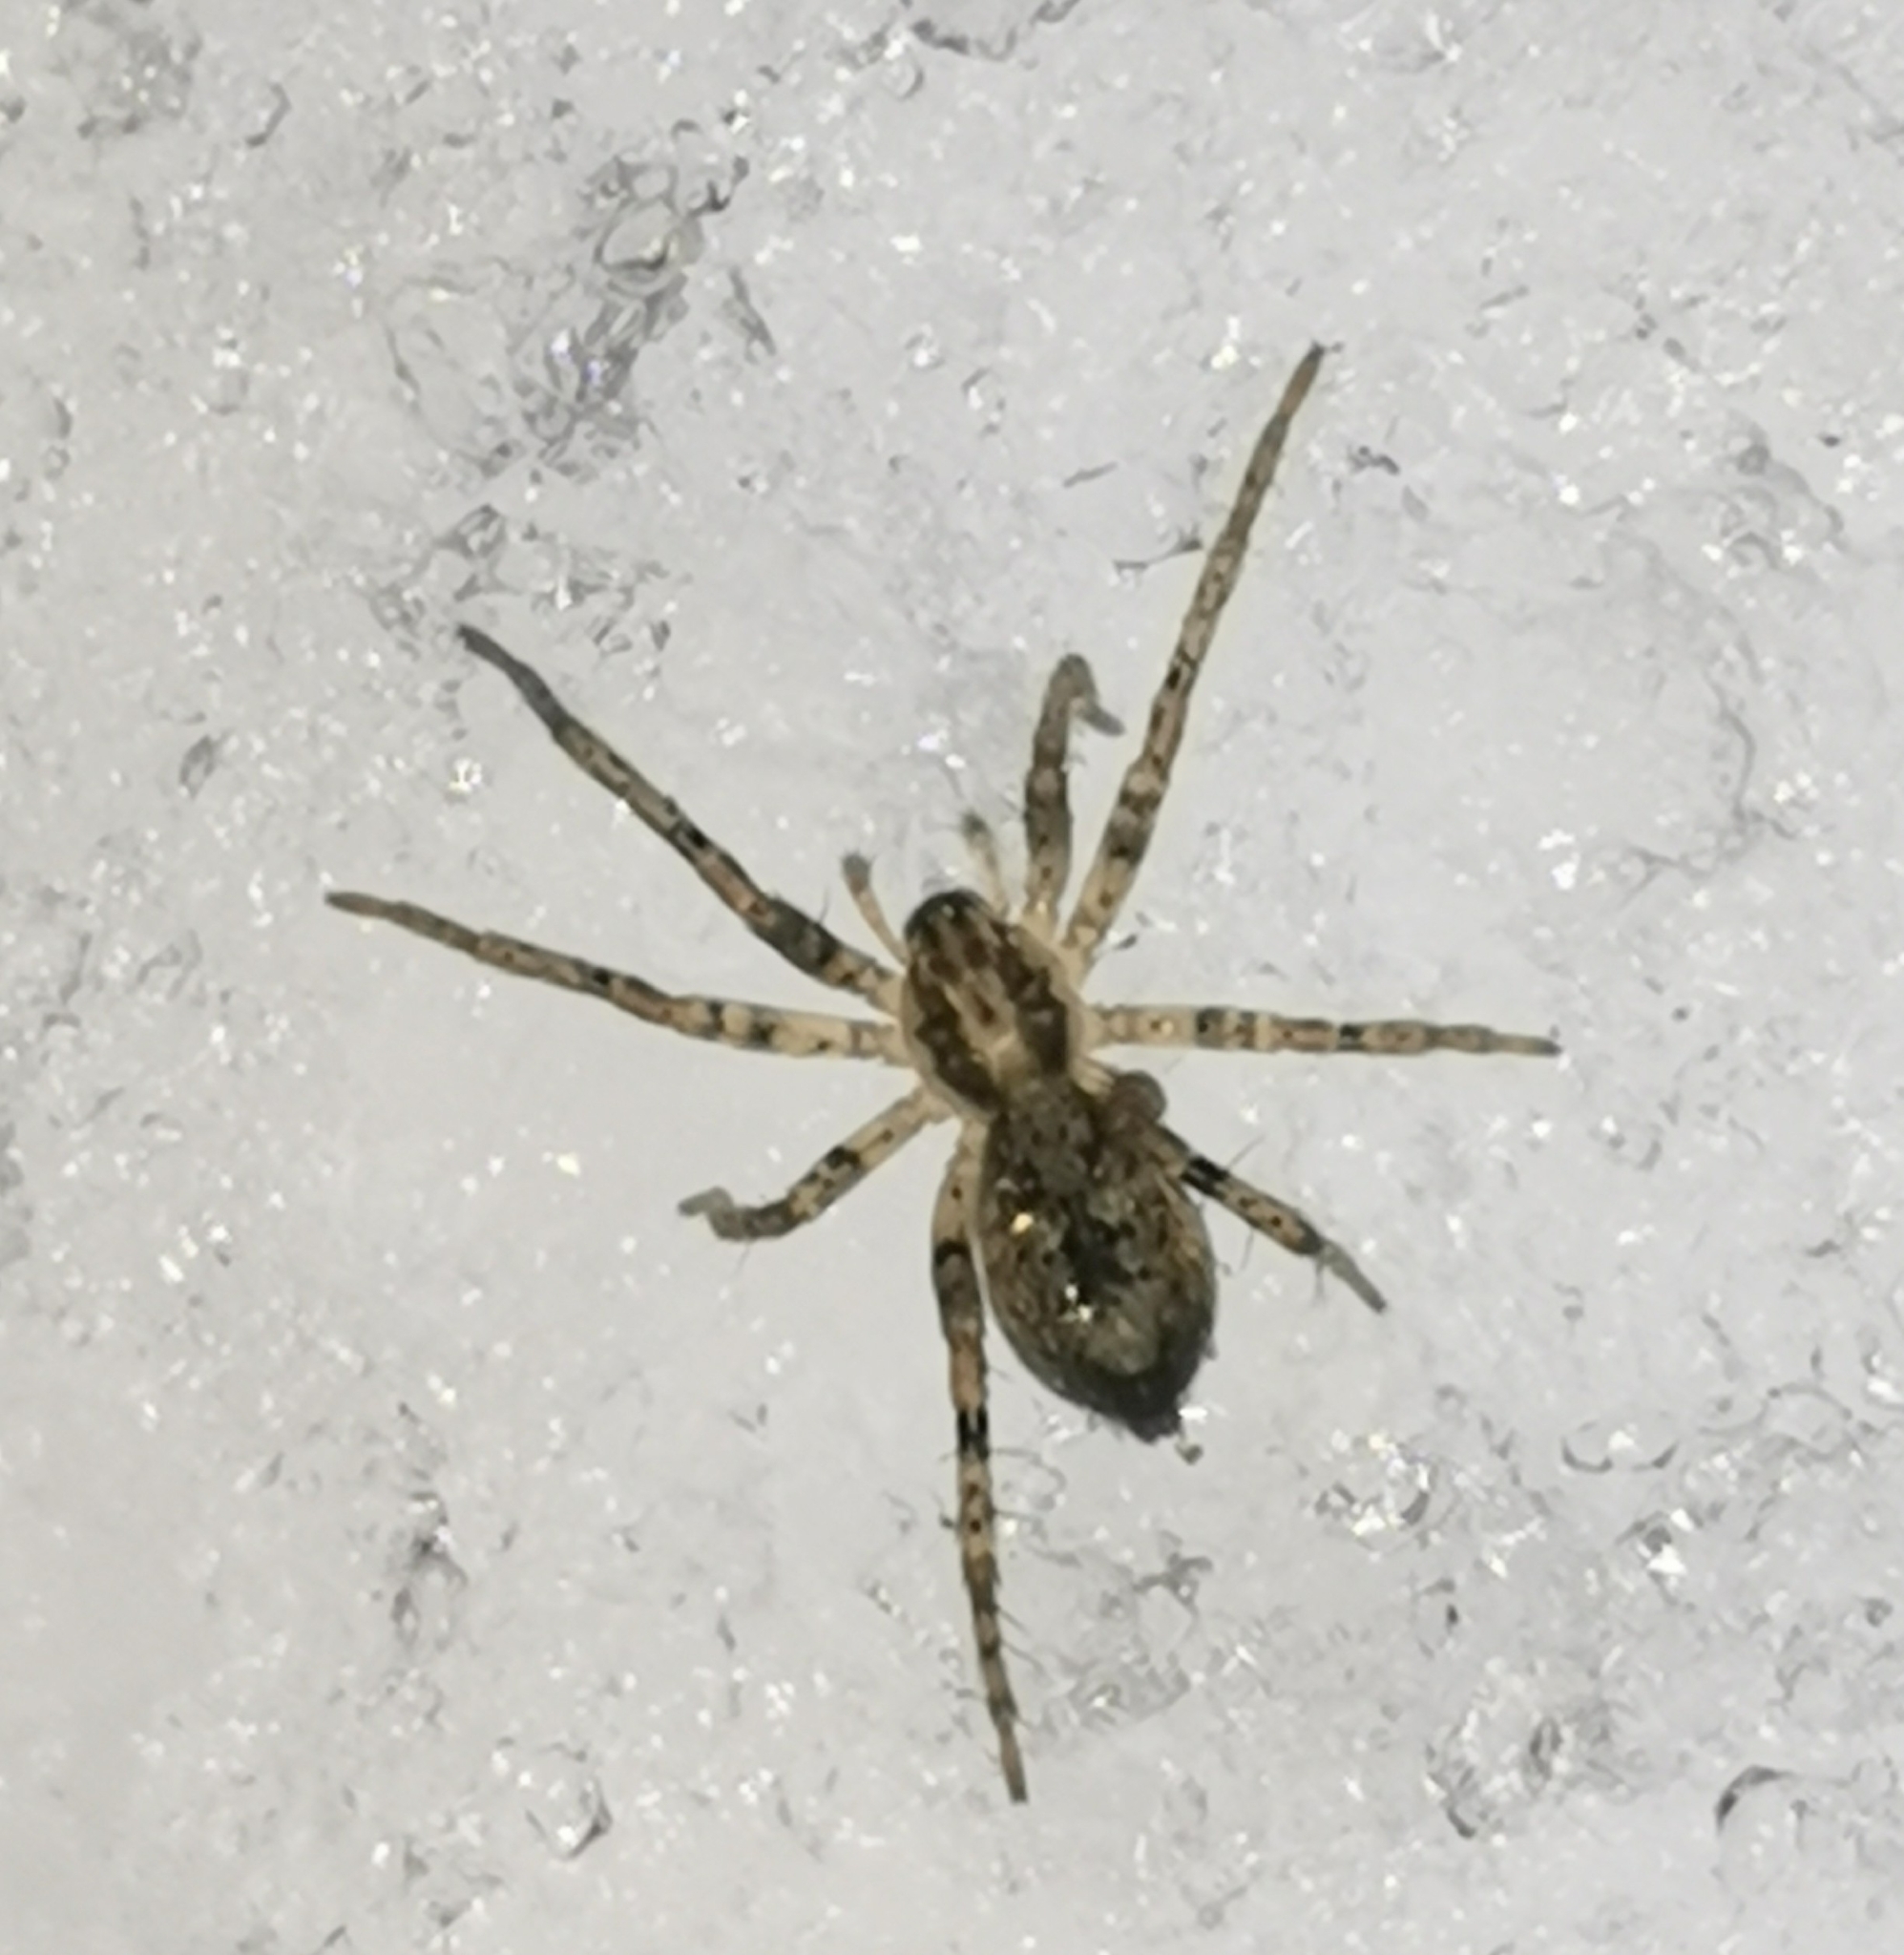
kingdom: Animalia
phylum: Arthropoda
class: Arachnida
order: Araneae
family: Anyphaenidae
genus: Anyphaena
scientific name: Anyphaena accentuata
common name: Buzzing spider
